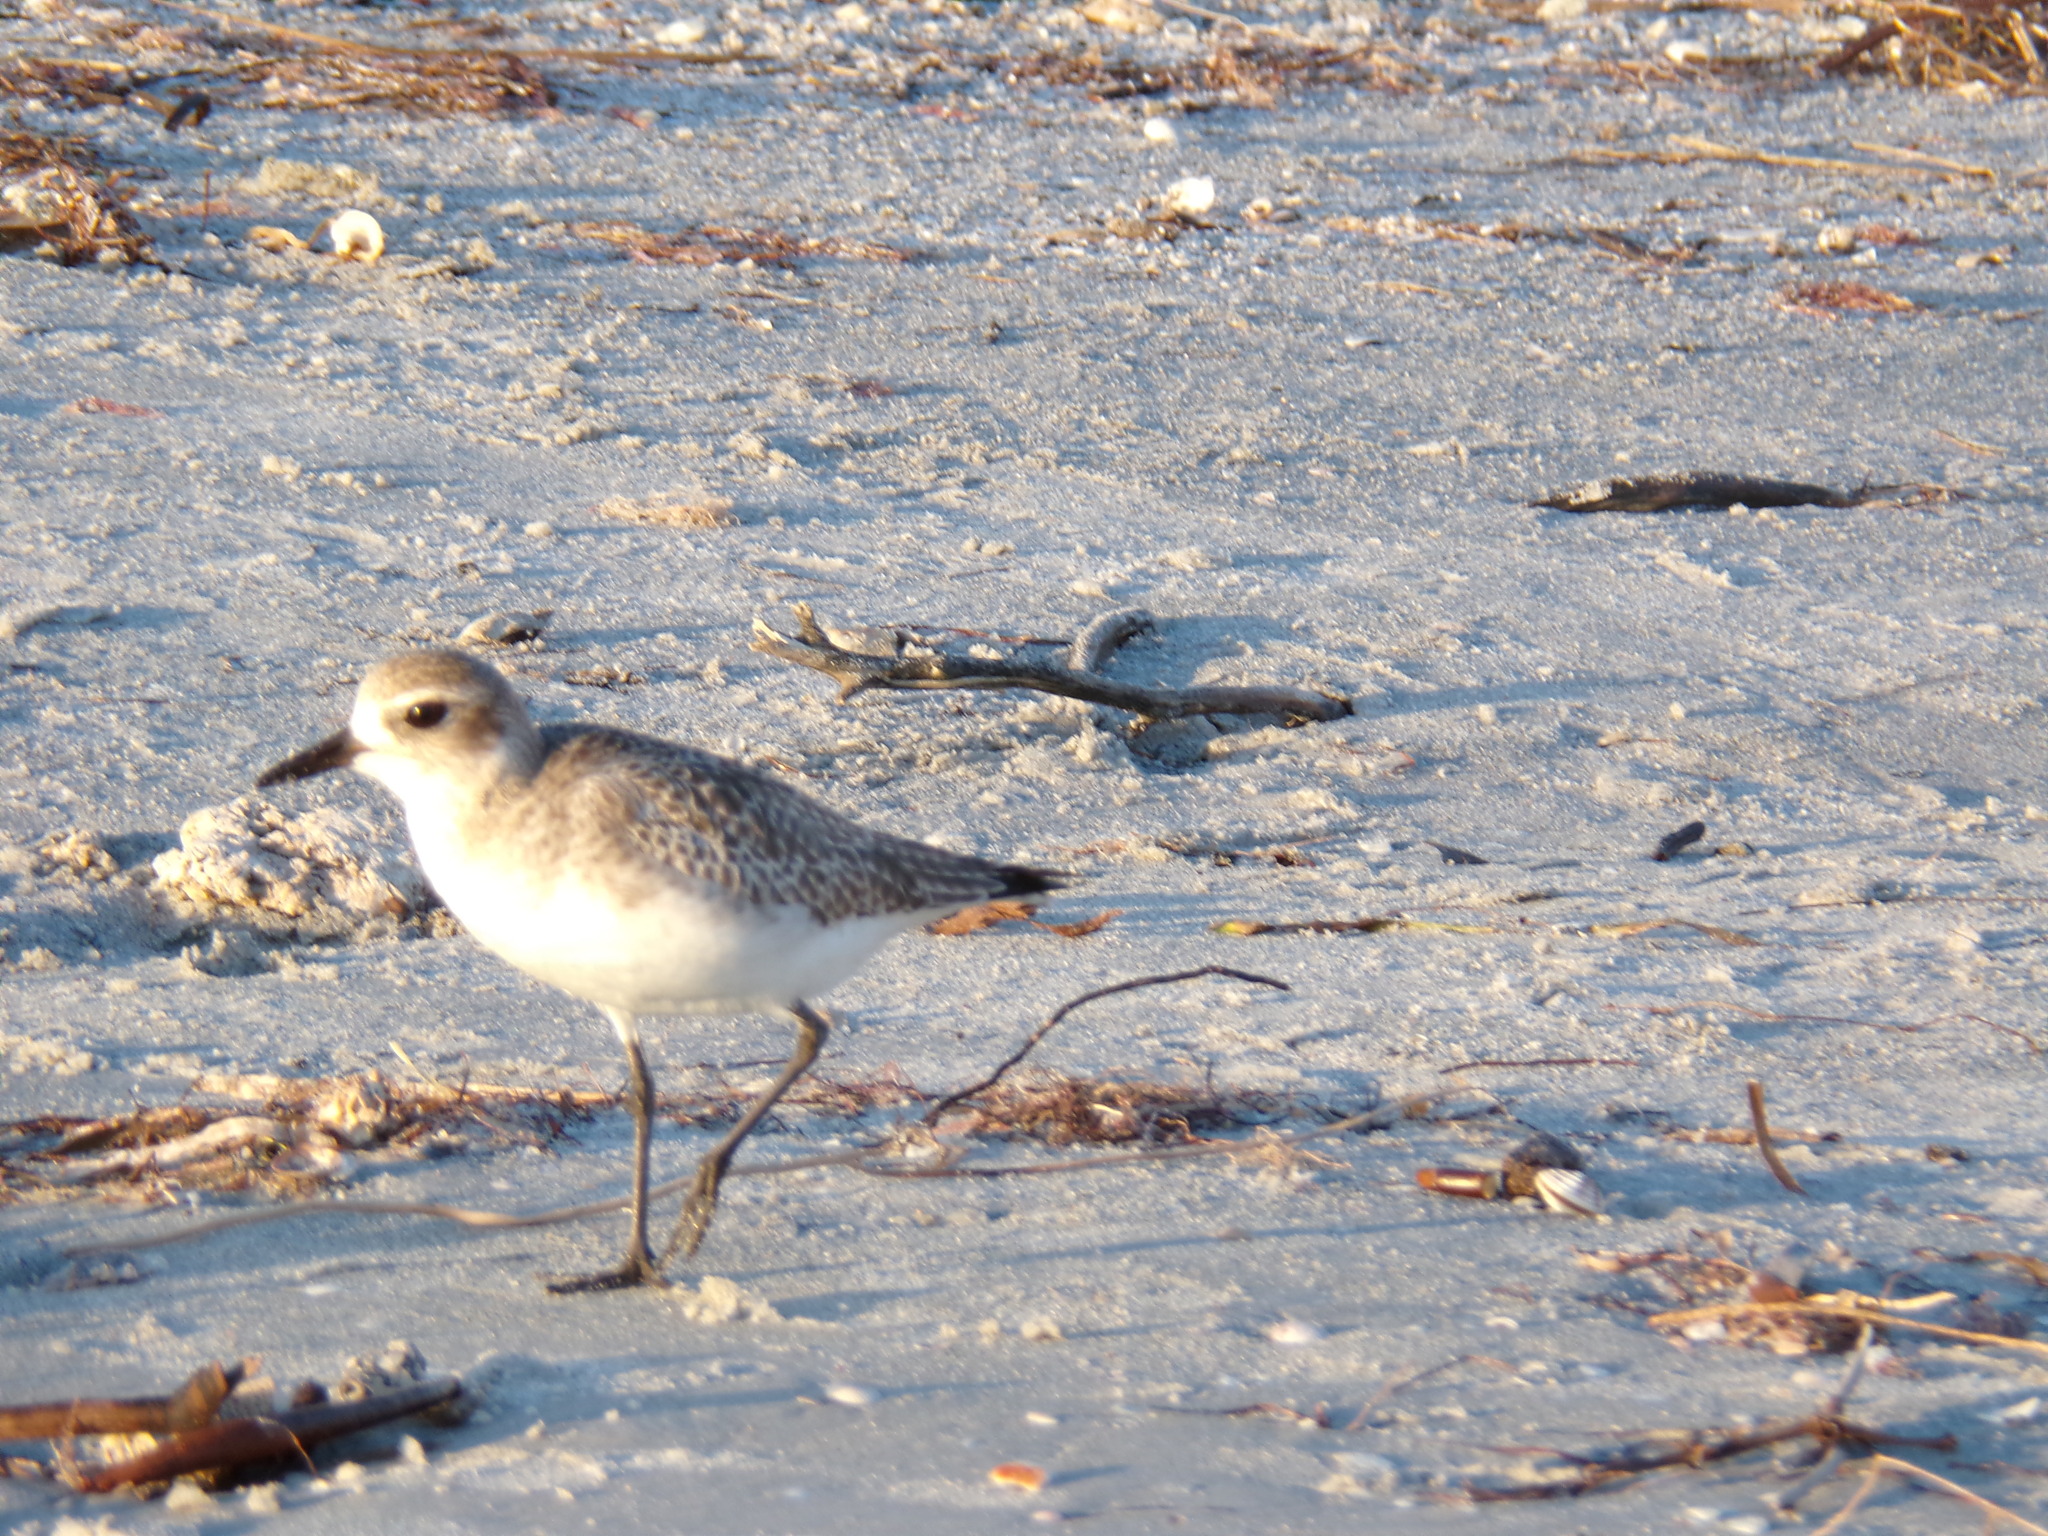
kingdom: Animalia
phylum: Chordata
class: Aves
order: Charadriiformes
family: Charadriidae
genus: Pluvialis
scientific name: Pluvialis squatarola
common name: Grey plover
